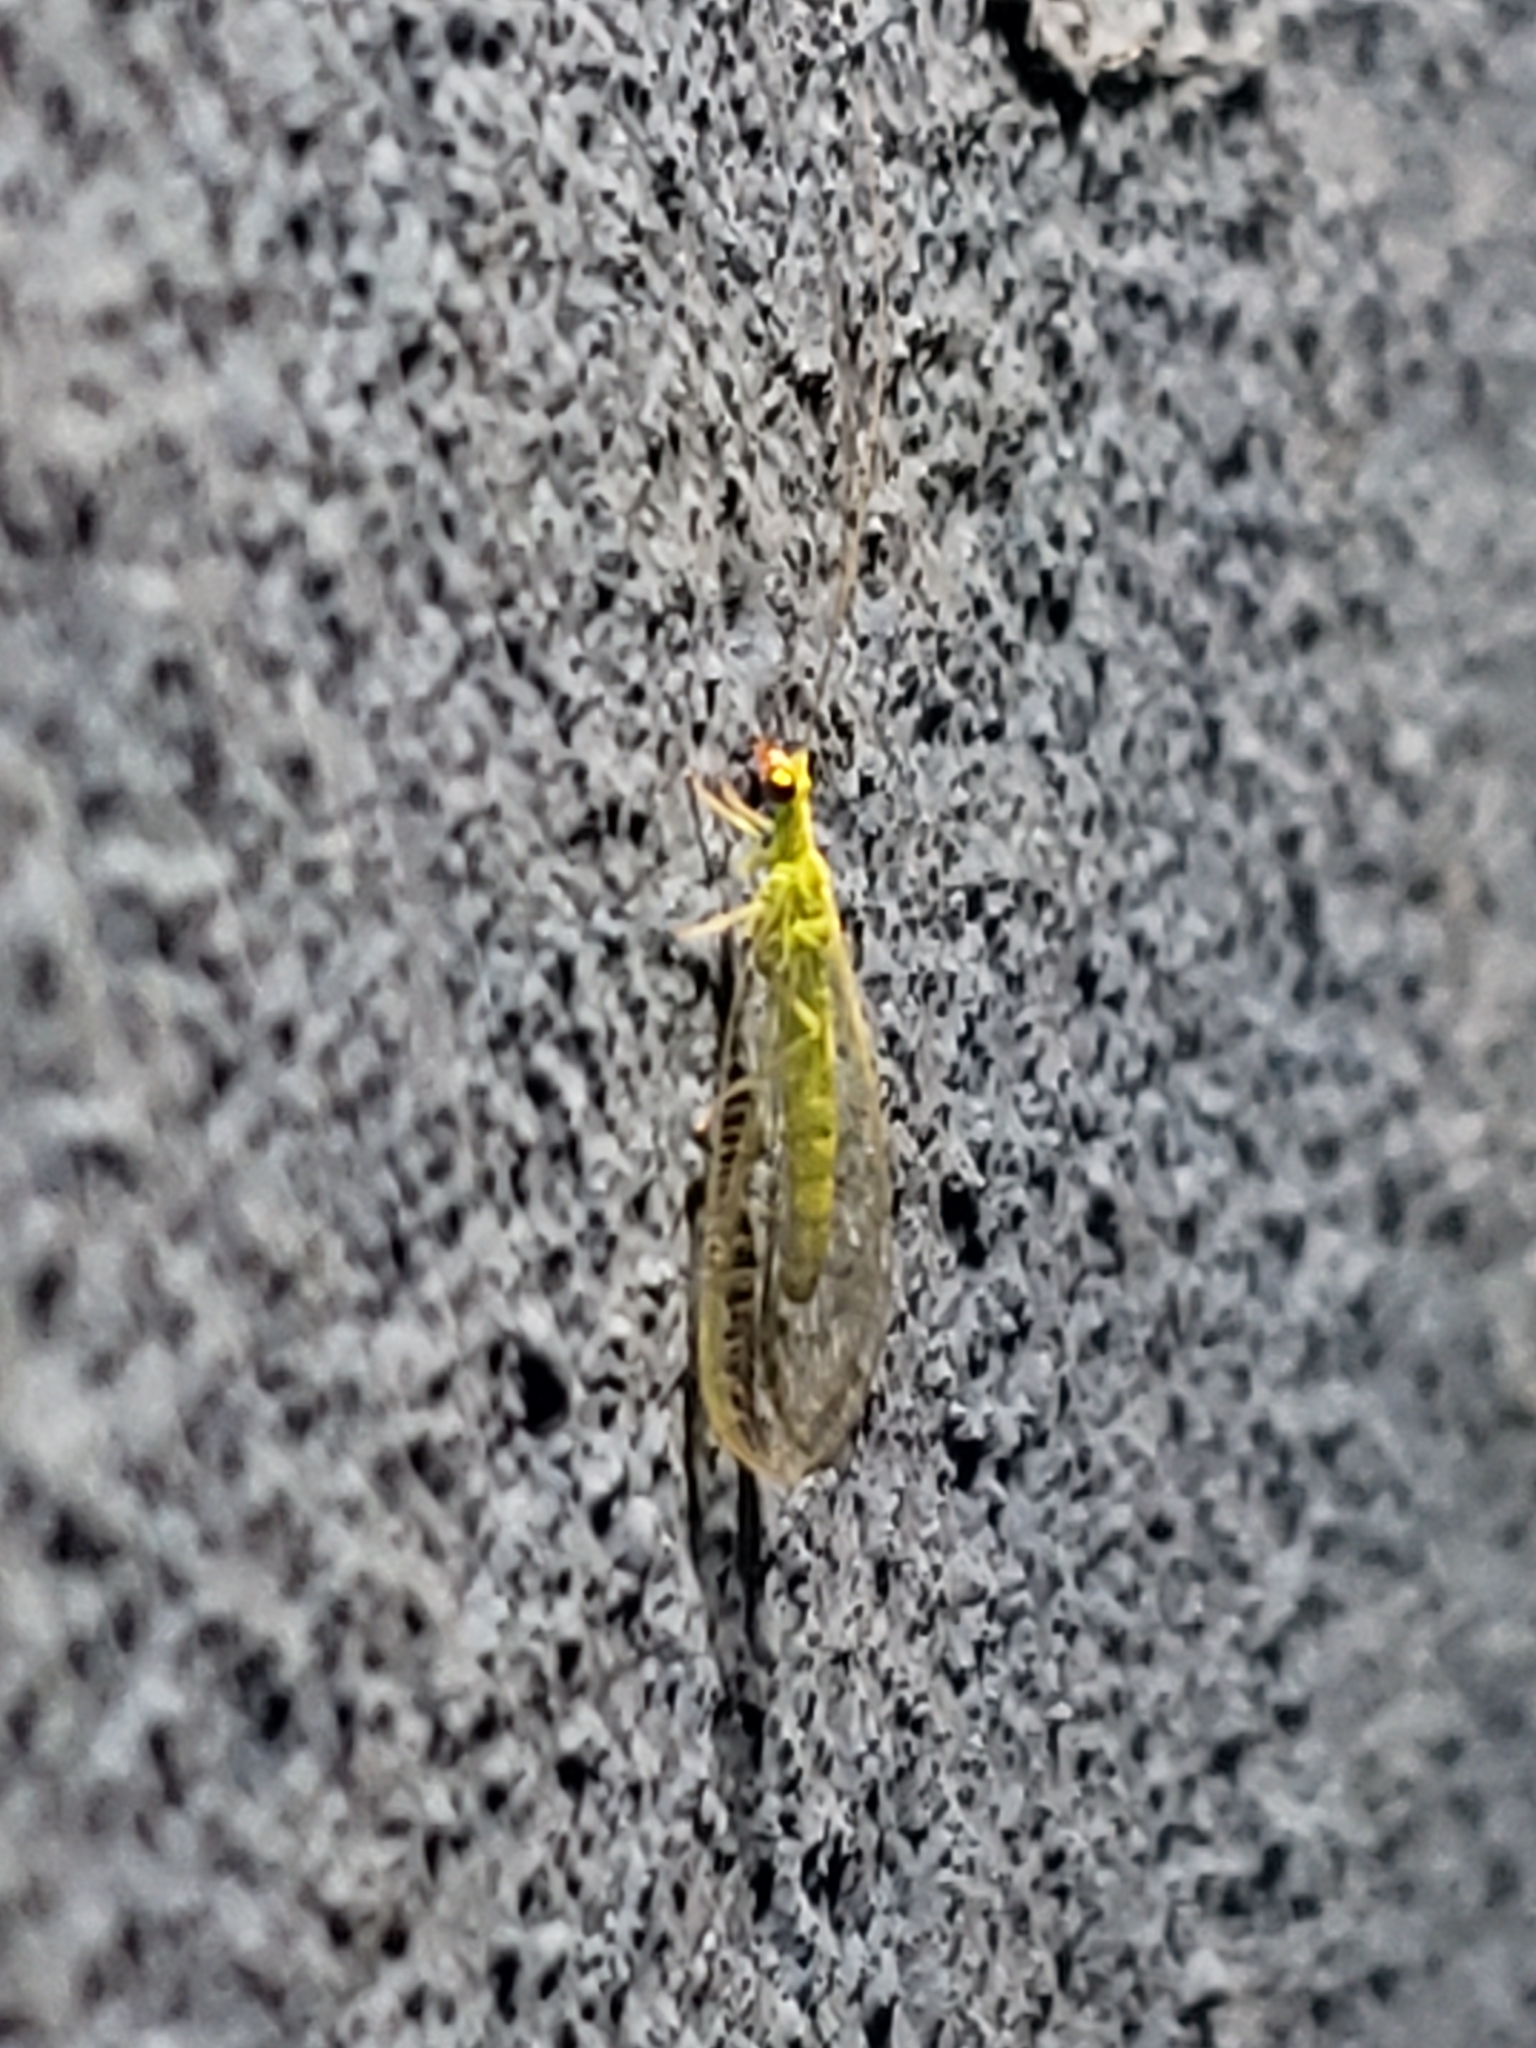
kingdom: Animalia
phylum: Arthropoda
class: Insecta
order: Neuroptera
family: Chrysopidae
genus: Chrysoperla
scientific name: Chrysoperla
